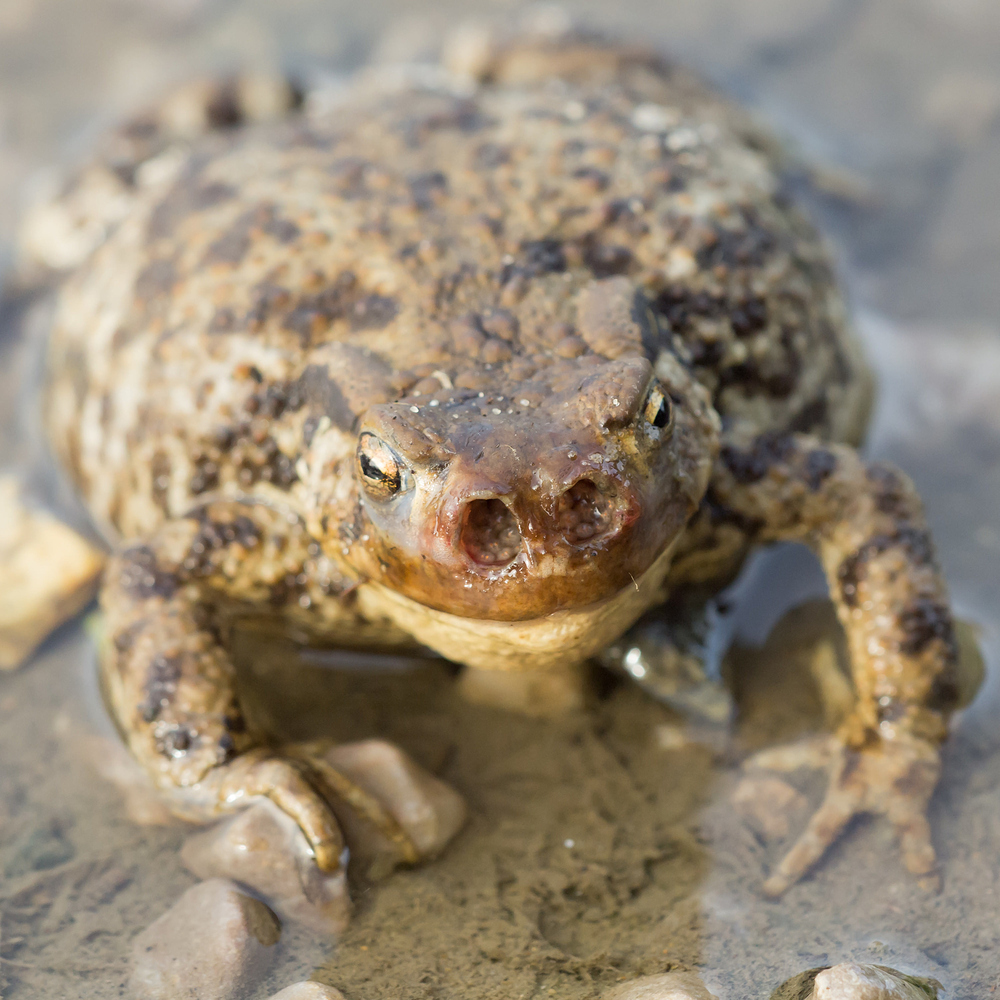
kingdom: Animalia
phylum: Arthropoda
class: Insecta
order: Diptera
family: Calliphoridae
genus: Lucilia
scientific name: Lucilia bufonivora
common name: Anuran parasite
